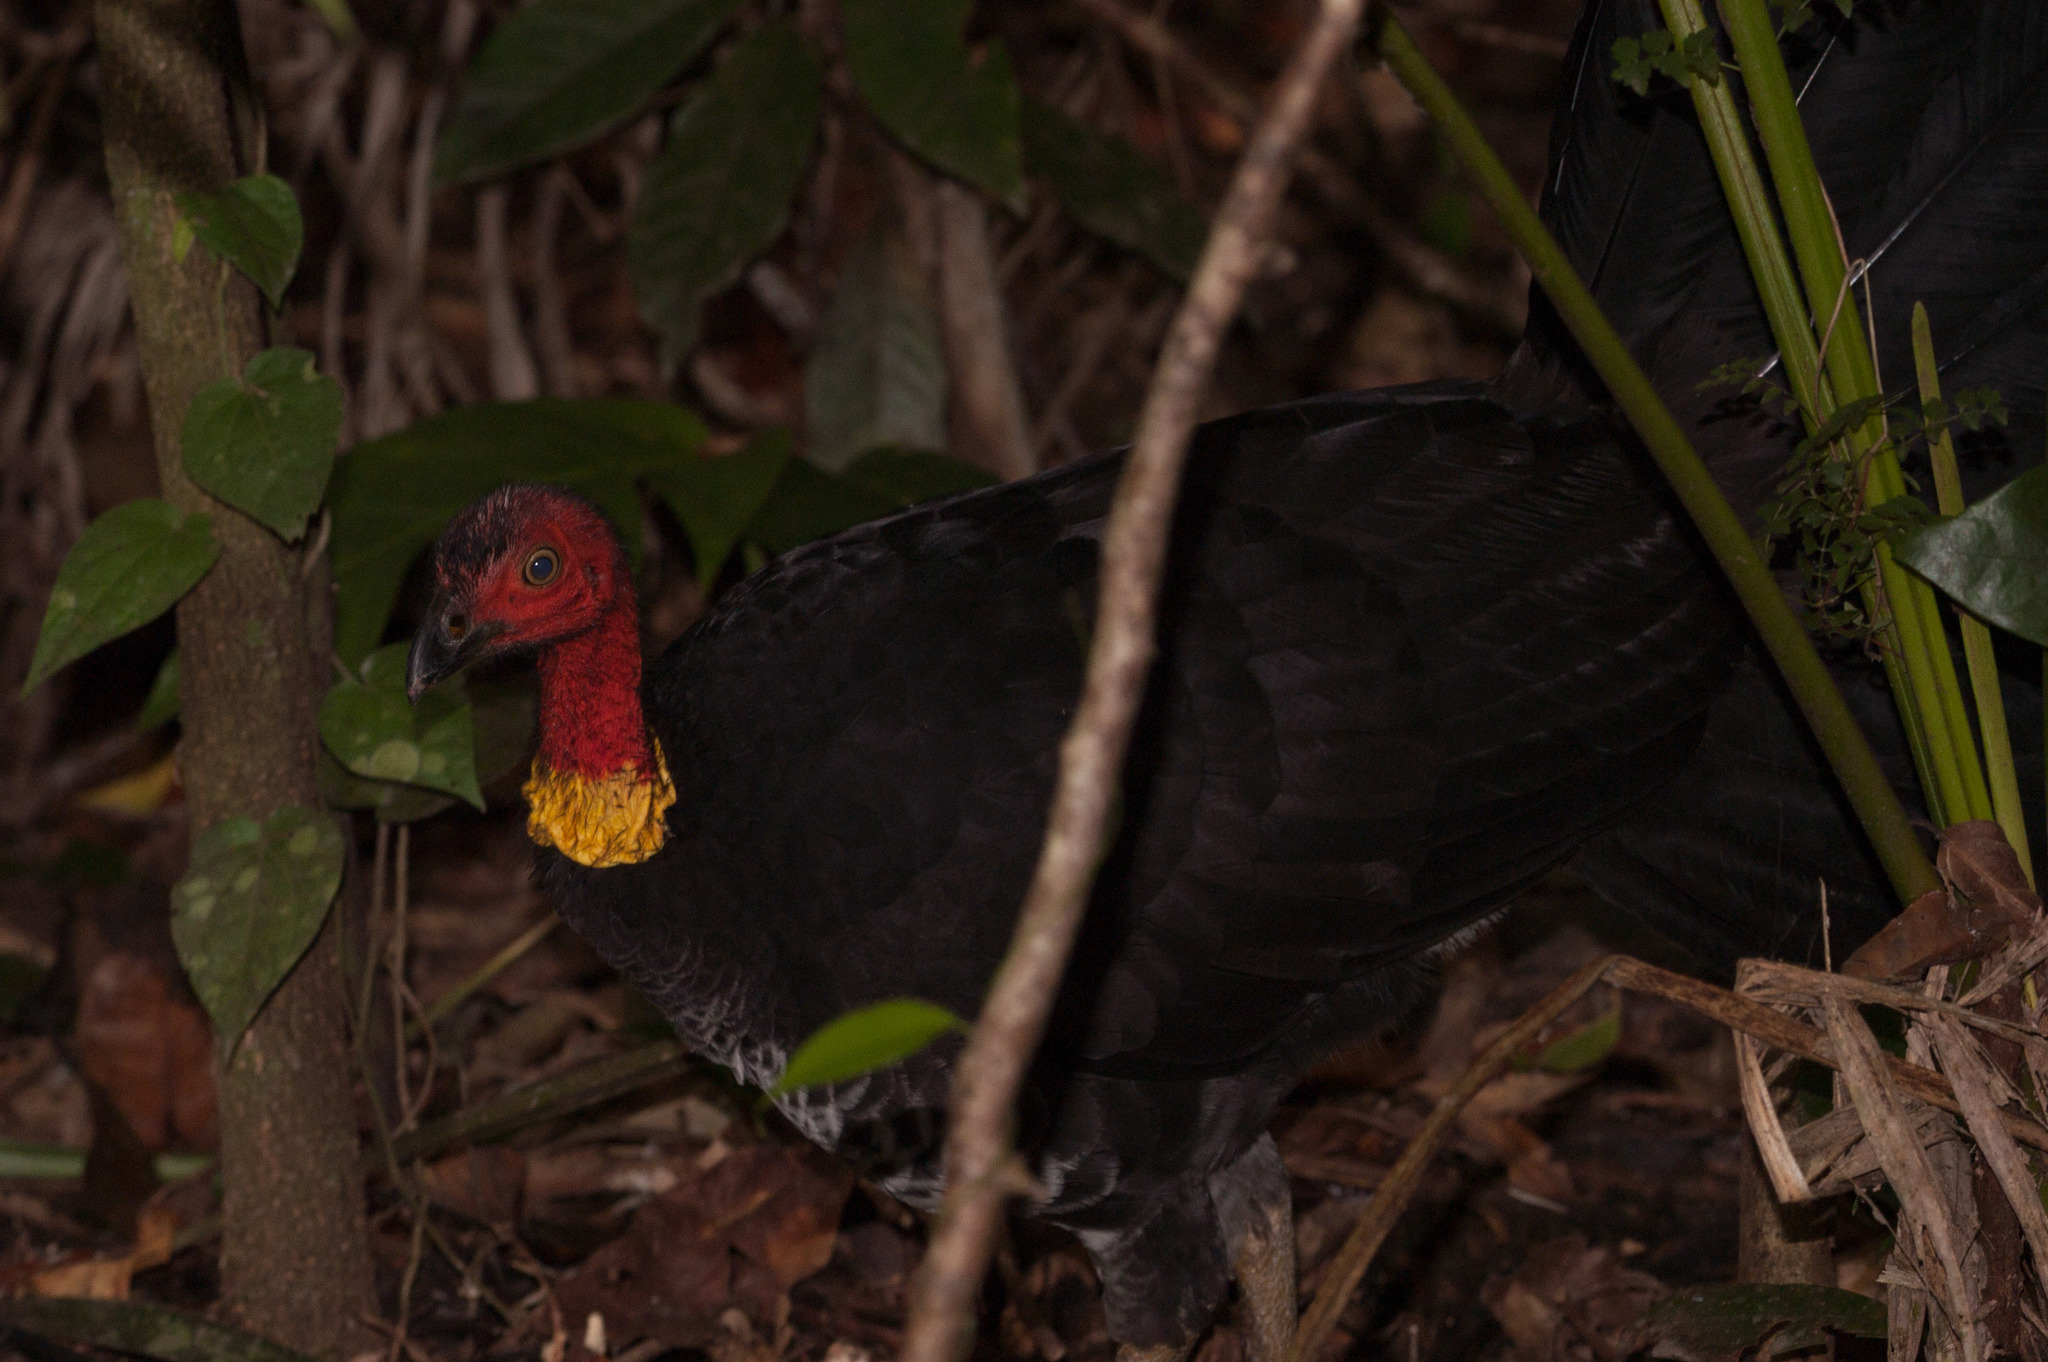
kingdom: Animalia
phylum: Chordata
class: Aves
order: Galliformes
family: Megapodiidae
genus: Alectura
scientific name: Alectura lathami
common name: Australian brushturkey
